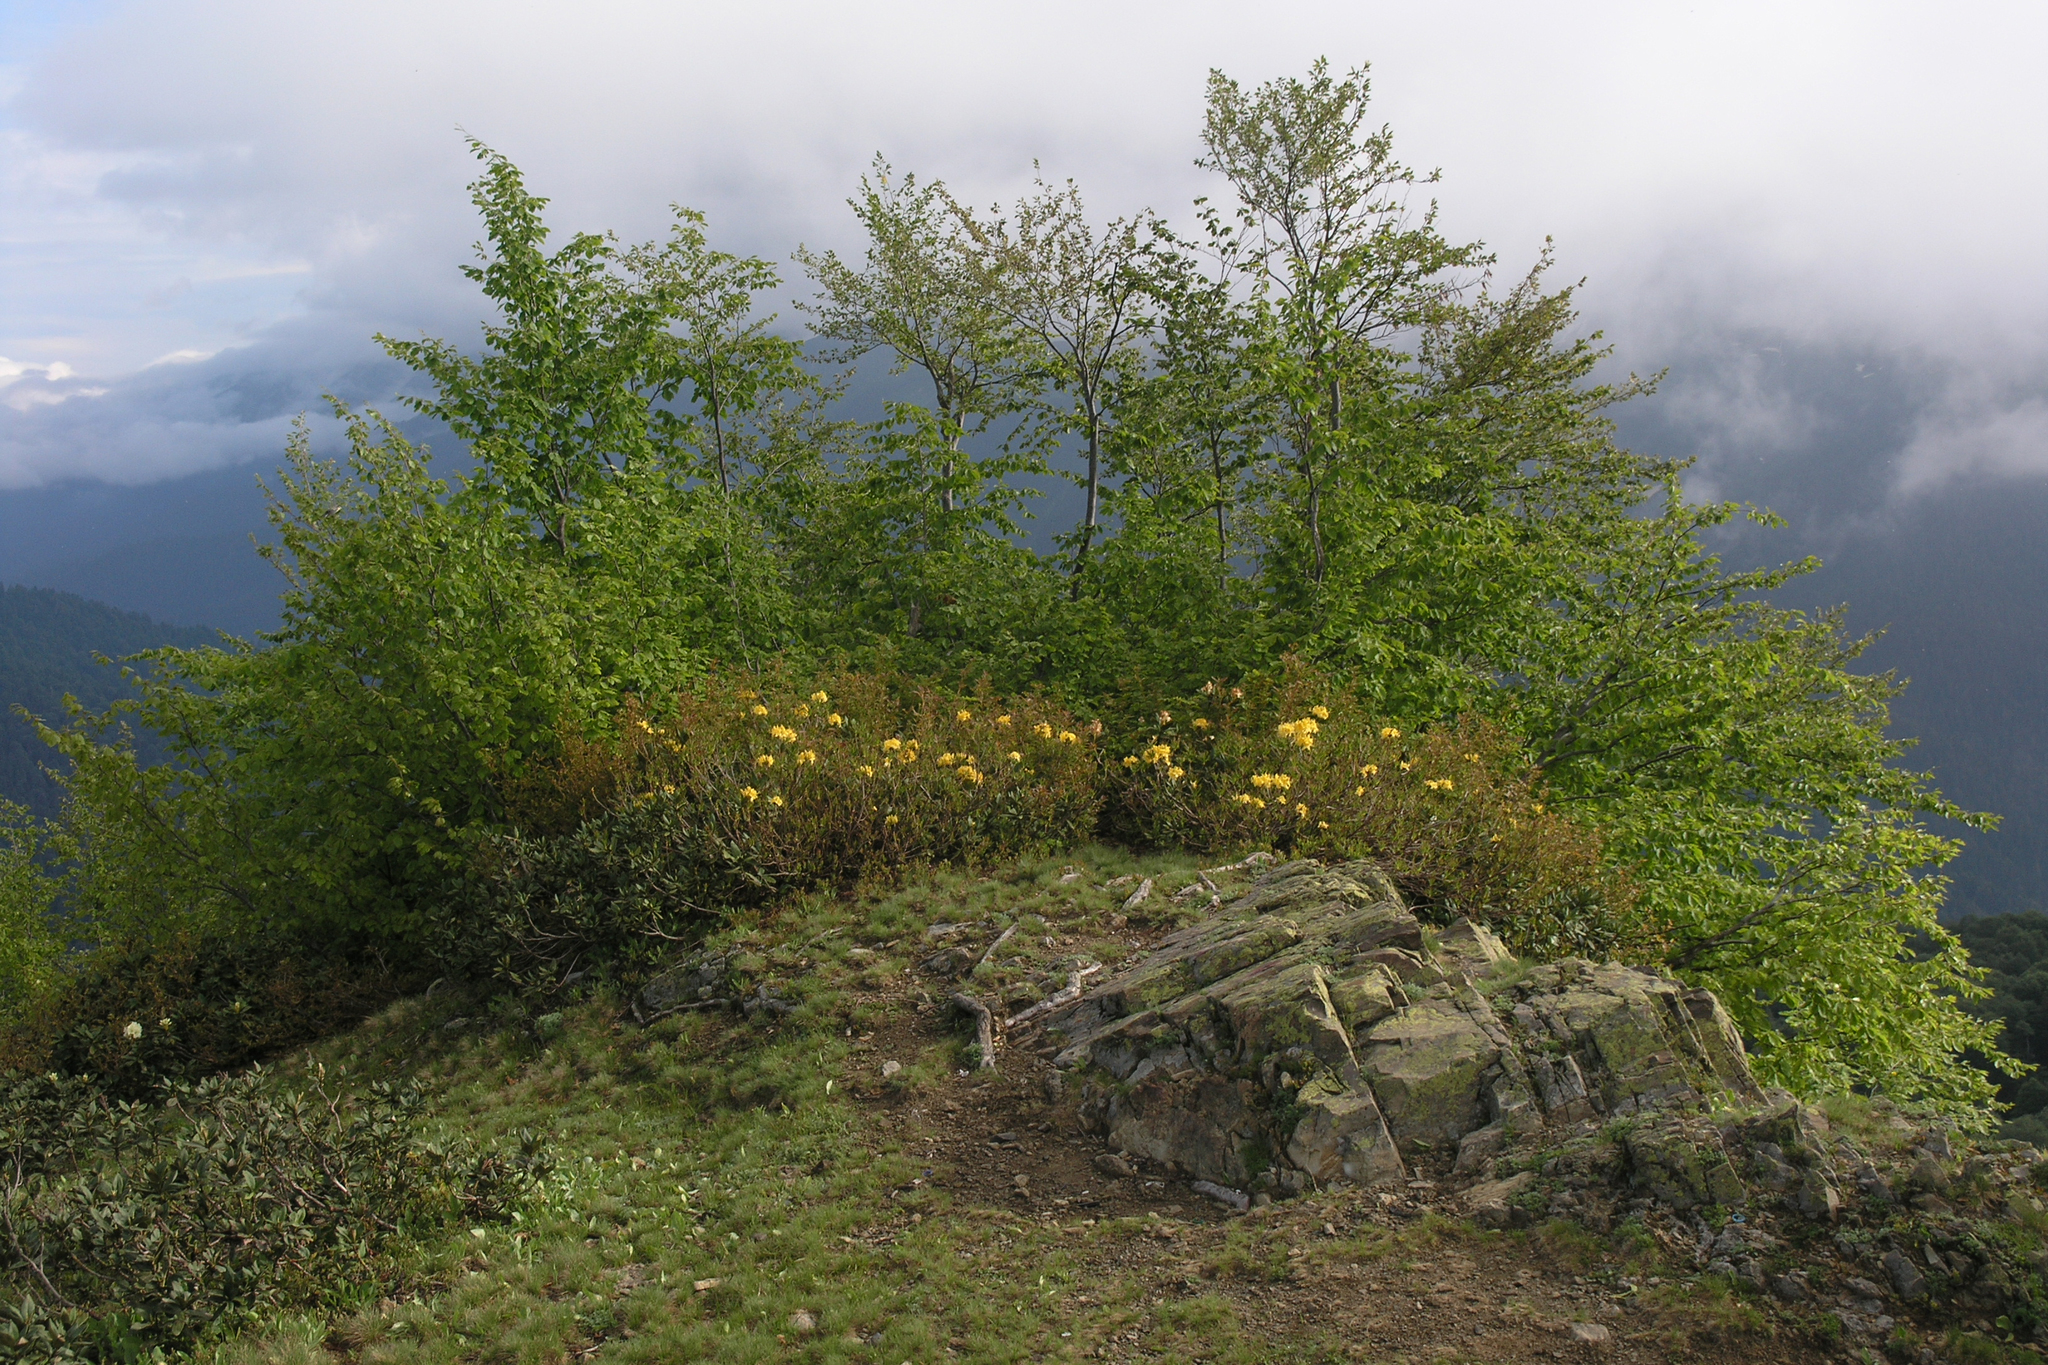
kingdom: Plantae
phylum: Tracheophyta
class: Magnoliopsida
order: Ericales
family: Ericaceae
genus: Rhododendron
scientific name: Rhododendron luteum
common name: Yellow azalea
